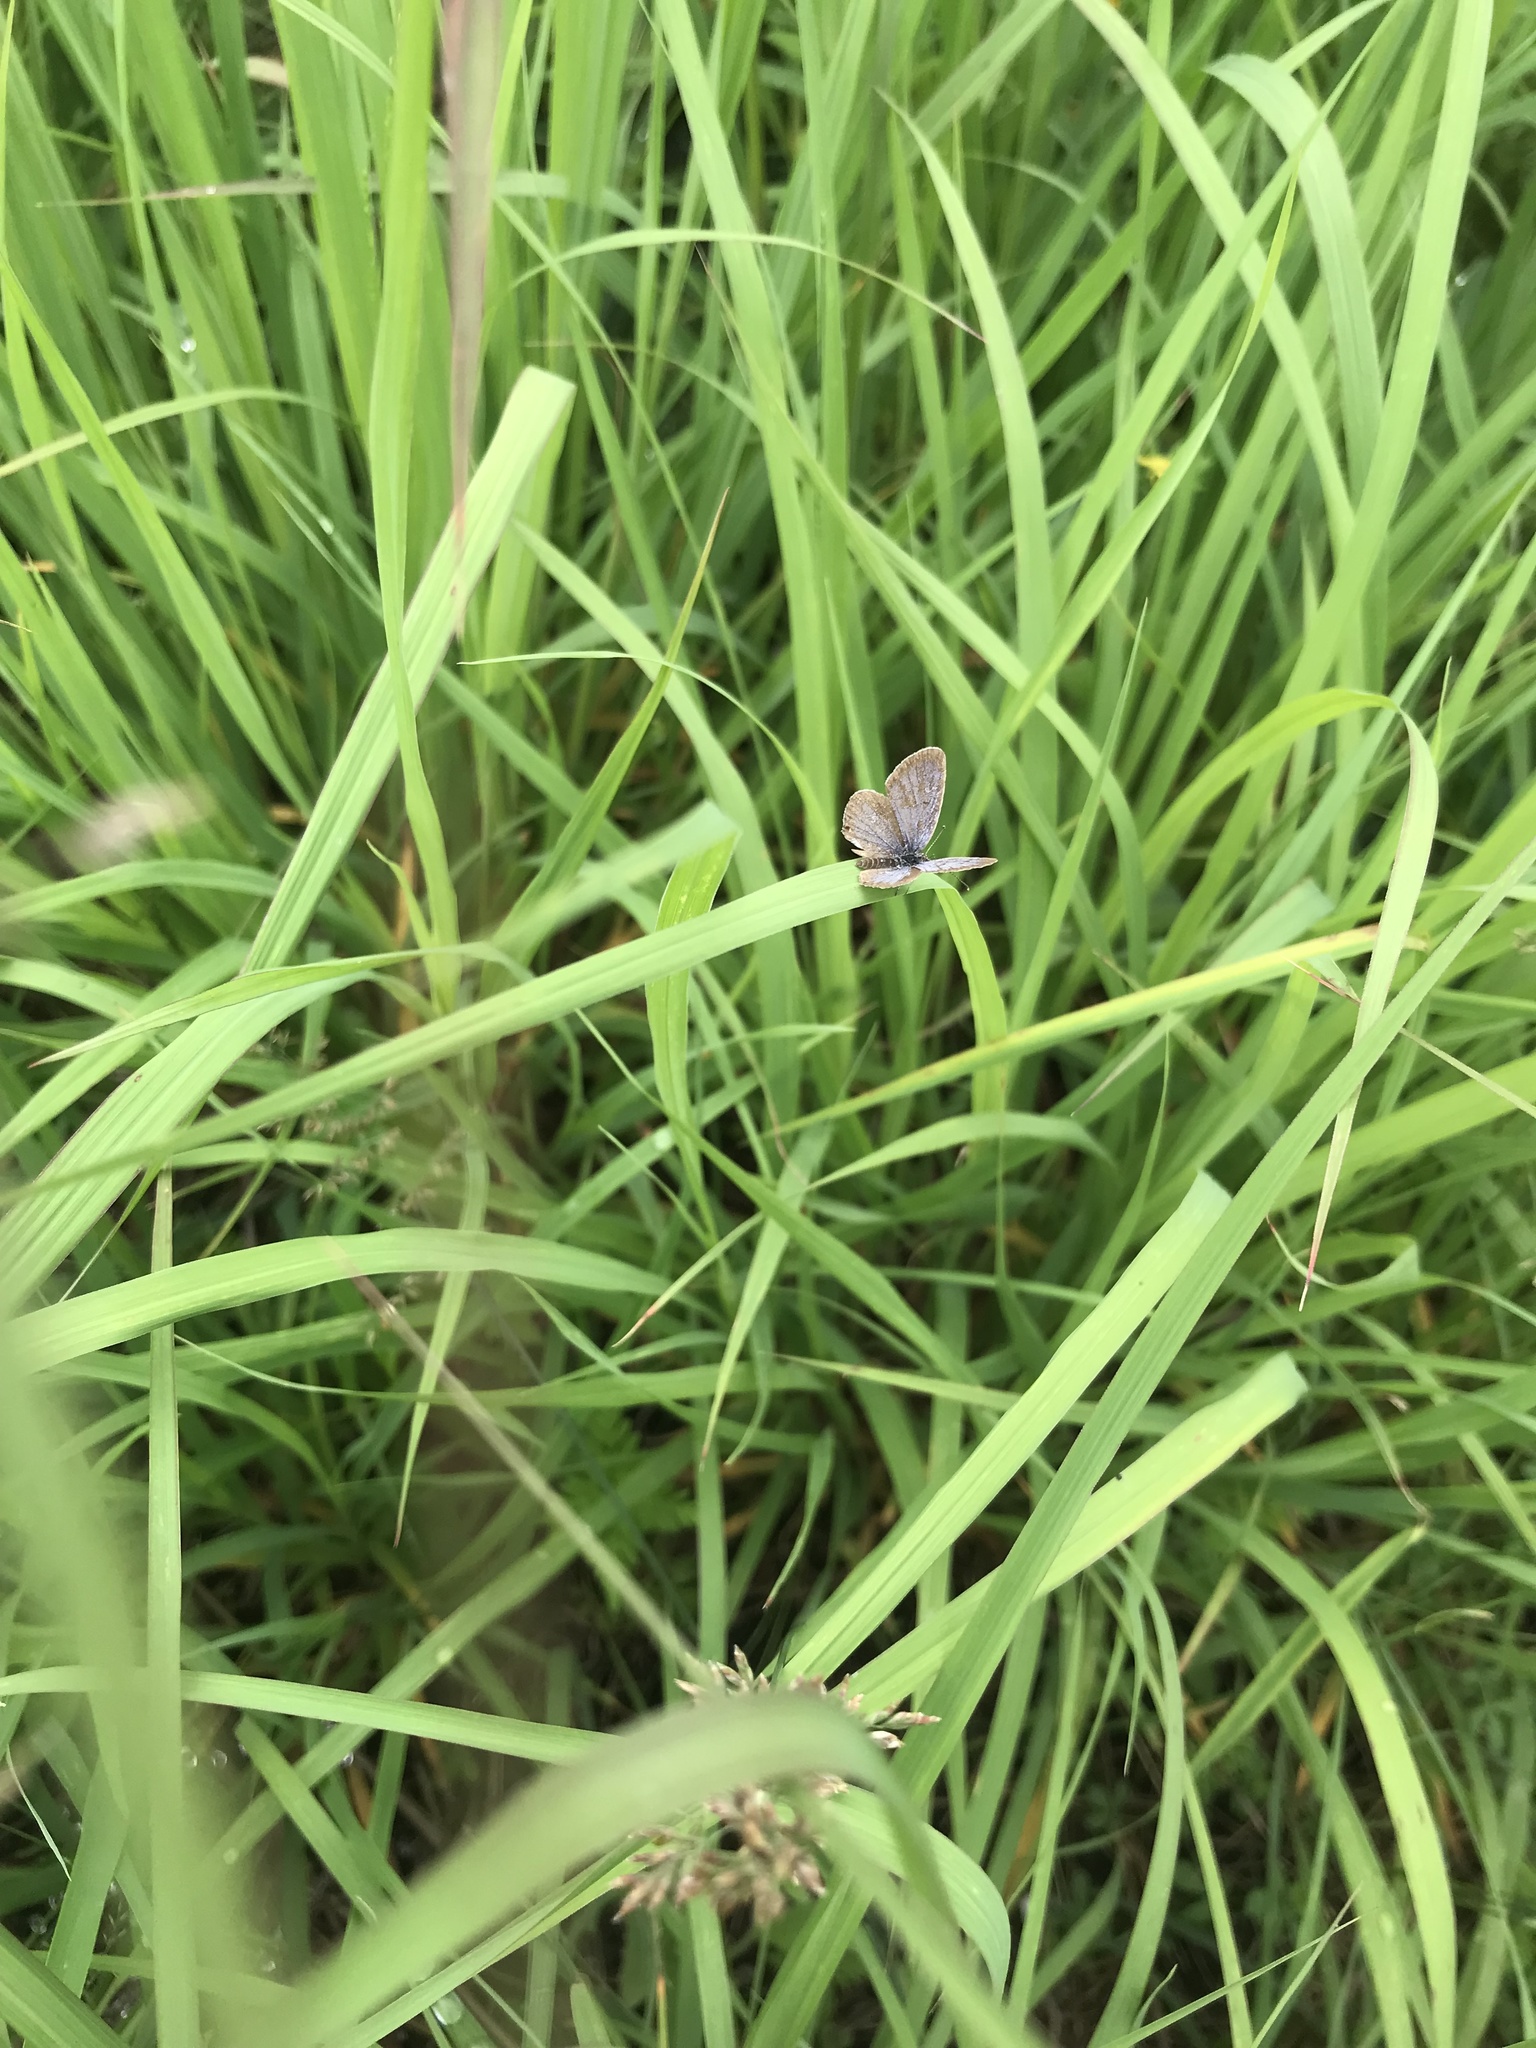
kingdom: Animalia
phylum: Arthropoda
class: Insecta
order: Lepidoptera
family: Lycaenidae
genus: Elkalyce
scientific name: Elkalyce comyntas
